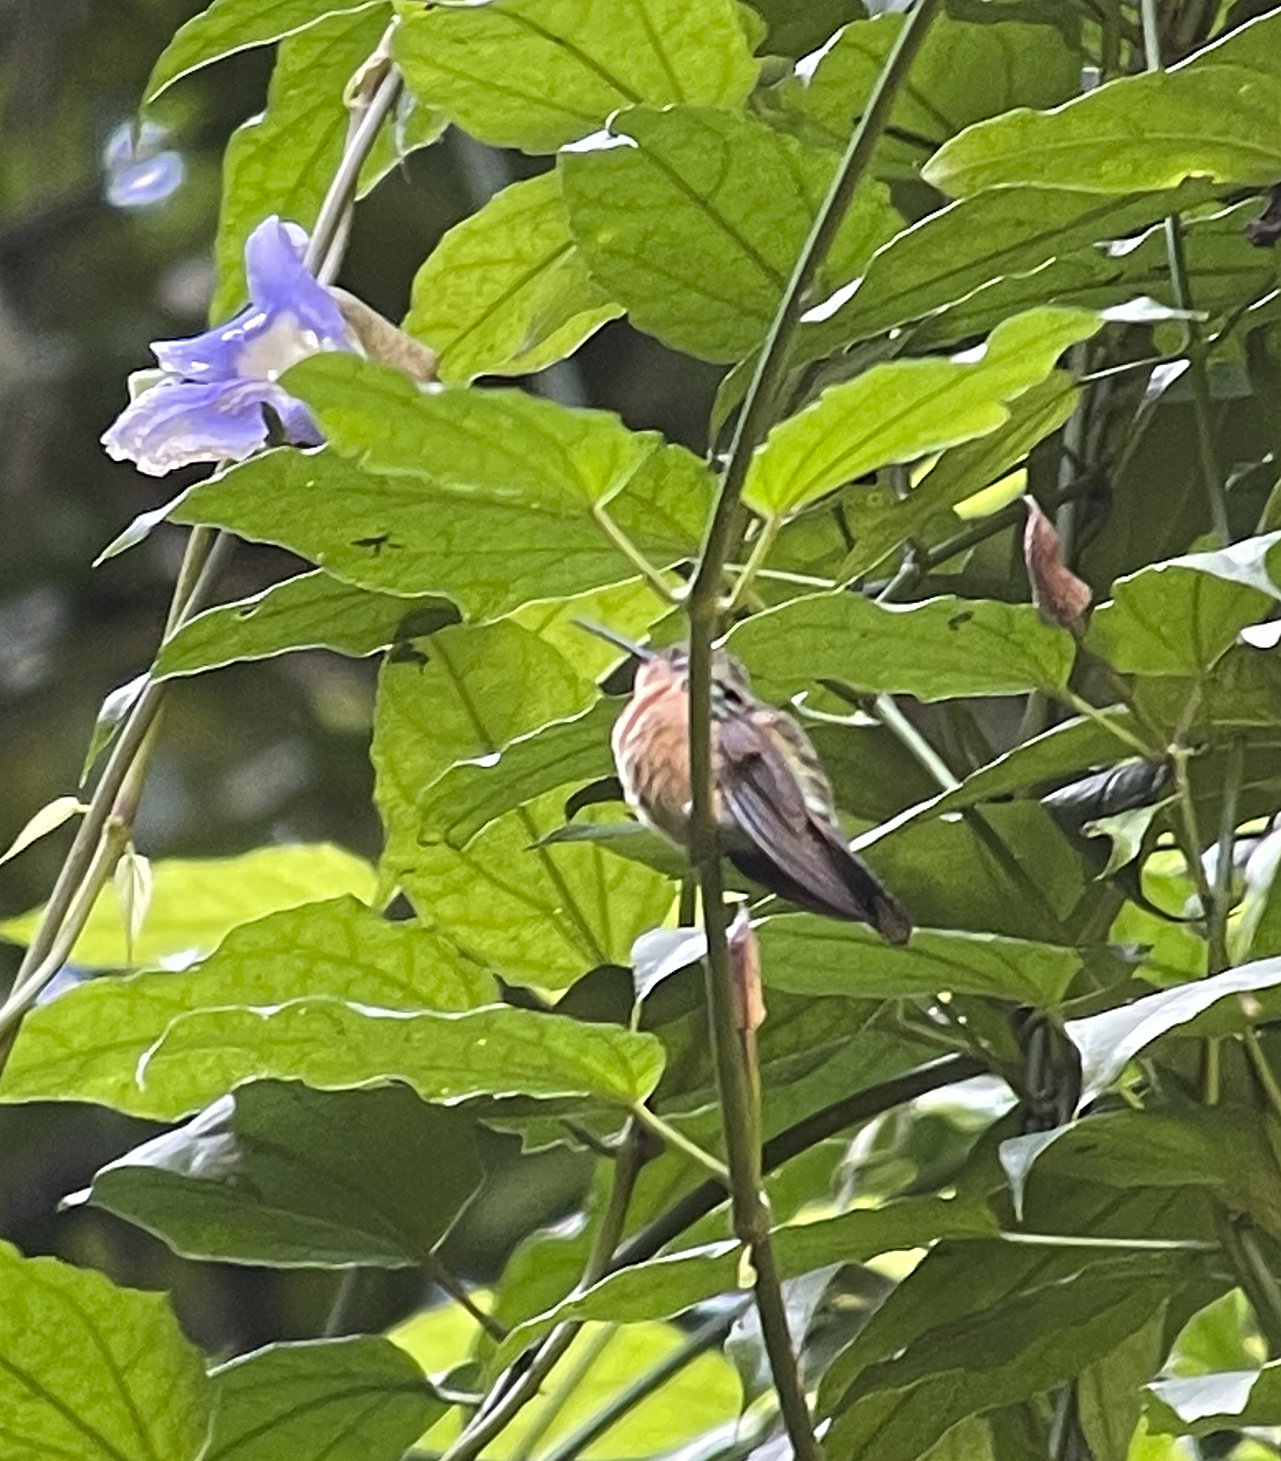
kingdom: Animalia
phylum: Chordata
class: Aves
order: Apodiformes
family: Trochilidae
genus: Pampa
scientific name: Pampa rufa
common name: Rufous sabrewing
